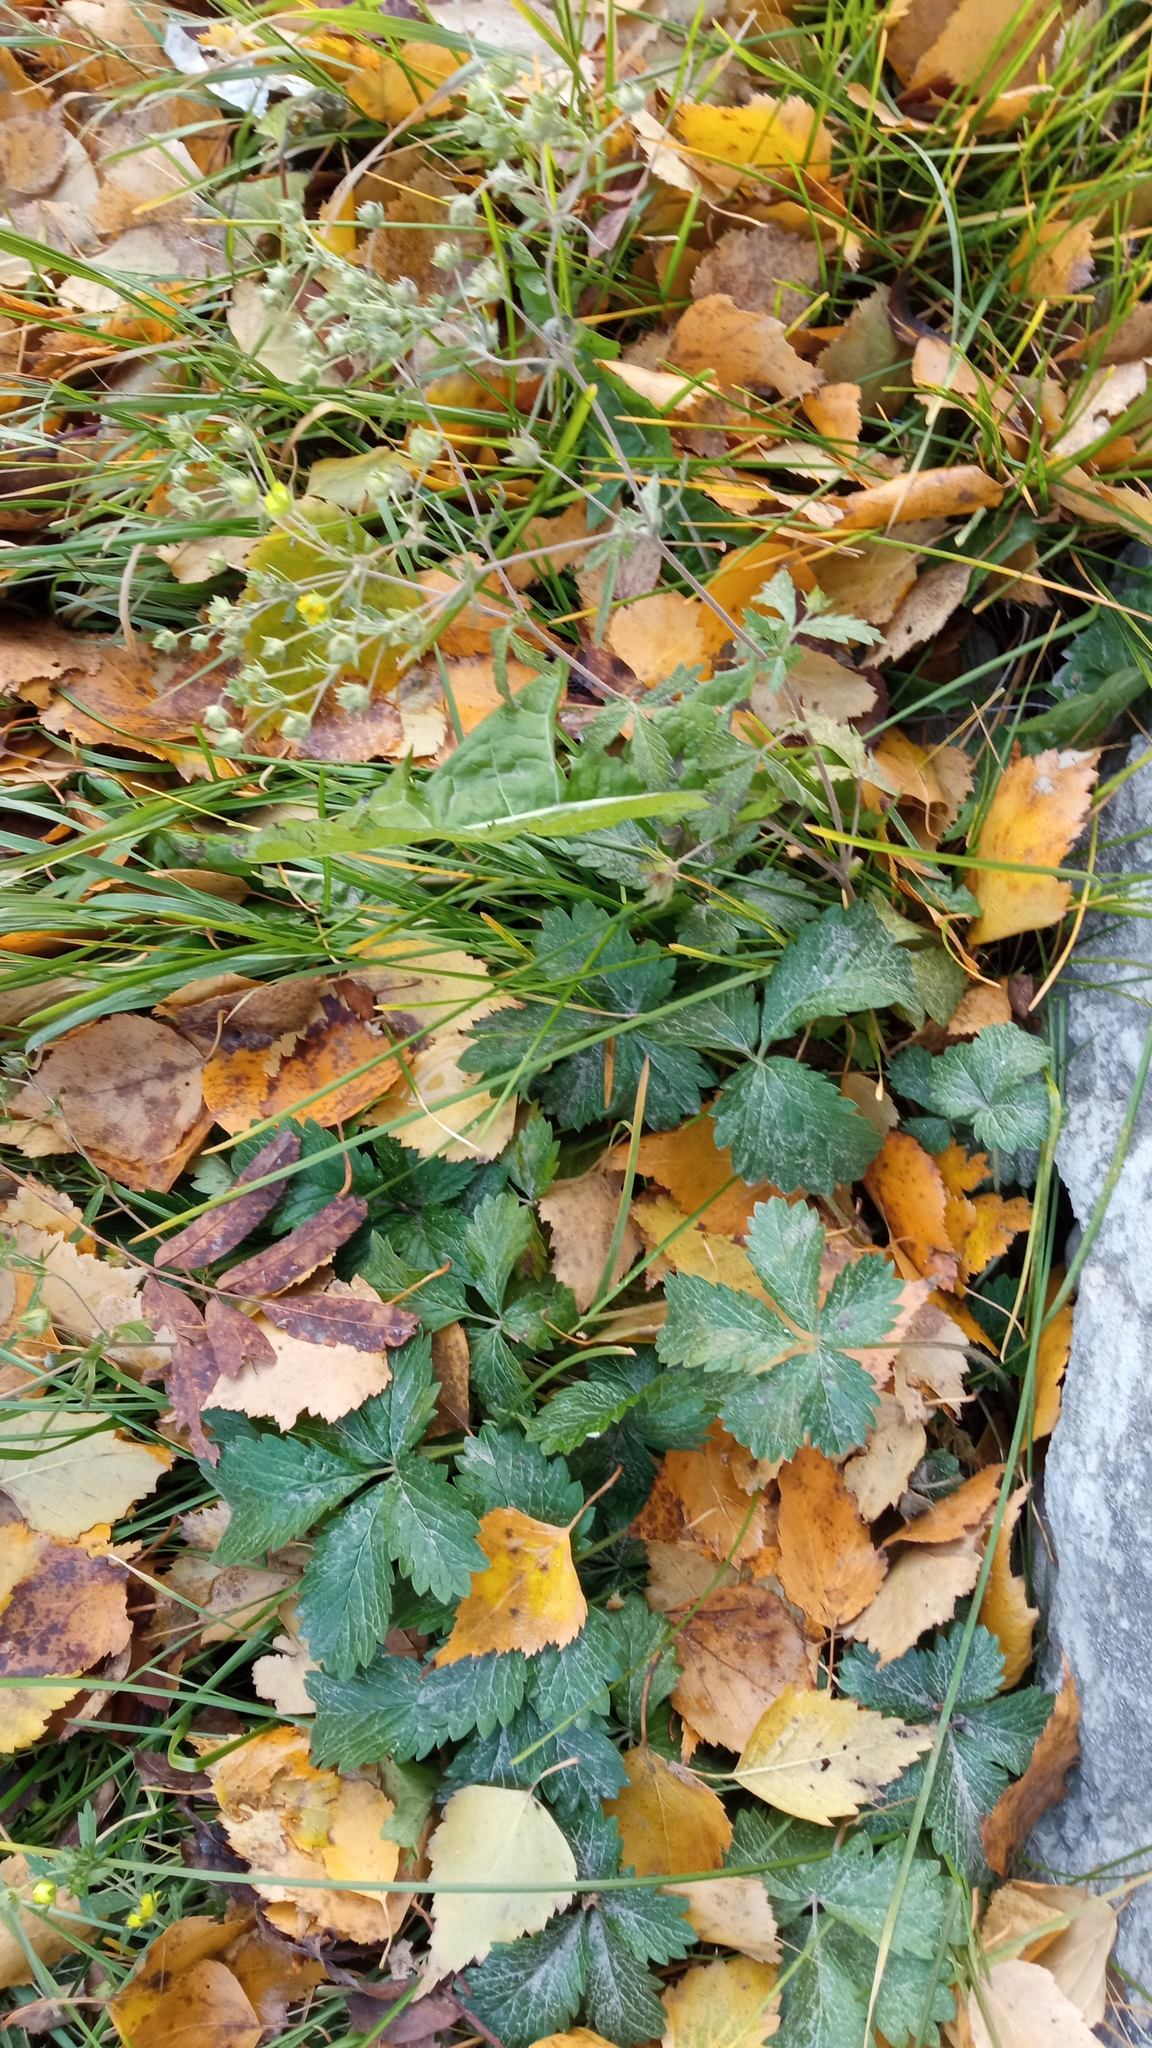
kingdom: Plantae
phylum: Tracheophyta
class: Magnoliopsida
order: Rosales
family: Rosaceae
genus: Potentilla
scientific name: Potentilla intermedia
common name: Downy cinquefoil
